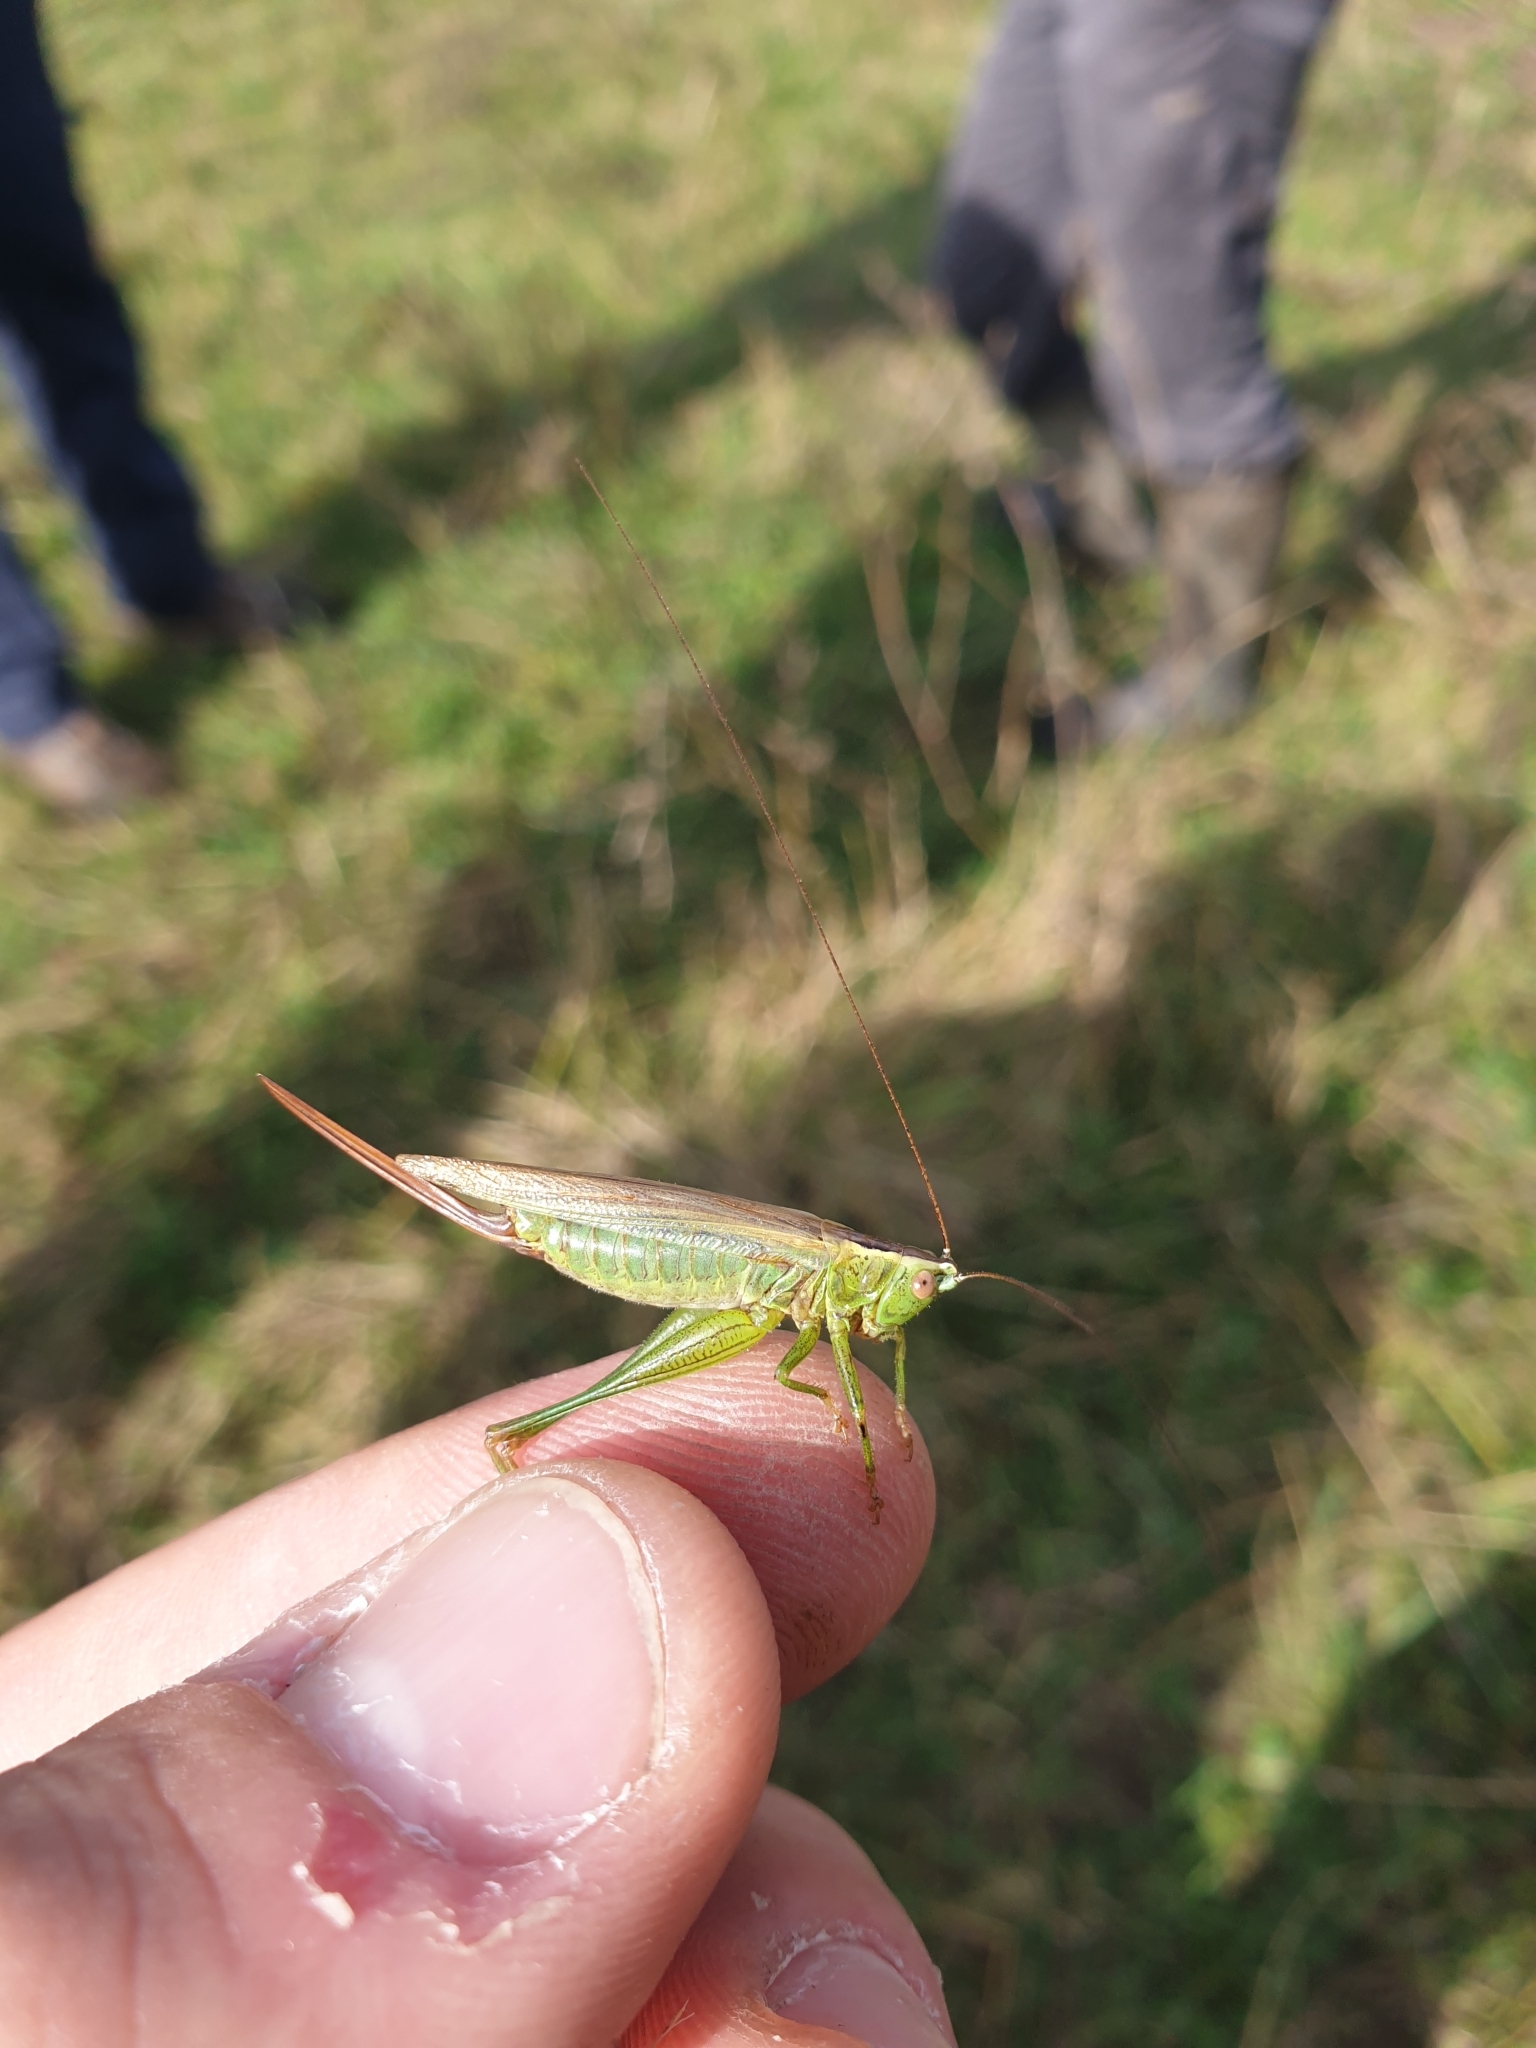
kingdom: Animalia
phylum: Arthropoda
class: Insecta
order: Orthoptera
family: Tettigoniidae
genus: Conocephalus
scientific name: Conocephalus fuscus
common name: Long-winged conehead
